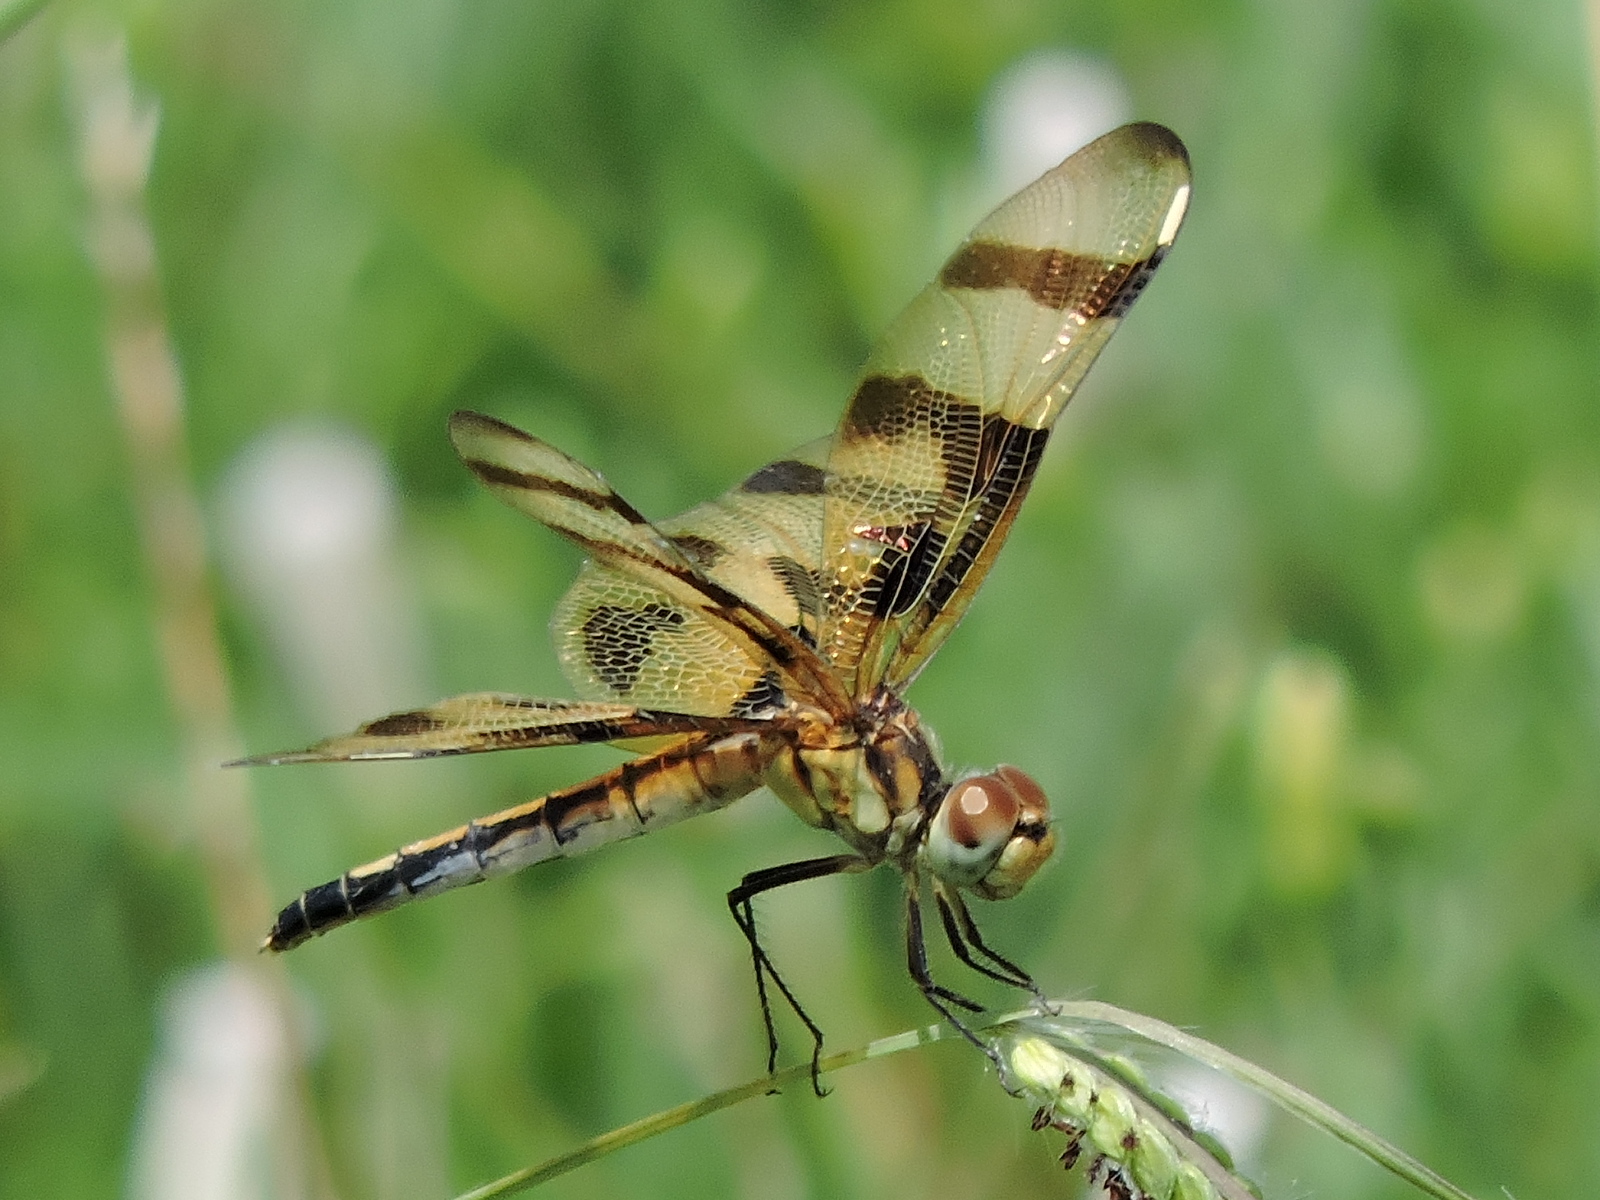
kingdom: Animalia
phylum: Arthropoda
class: Insecta
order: Odonata
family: Libellulidae
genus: Celithemis
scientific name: Celithemis eponina
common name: Halloween pennant
